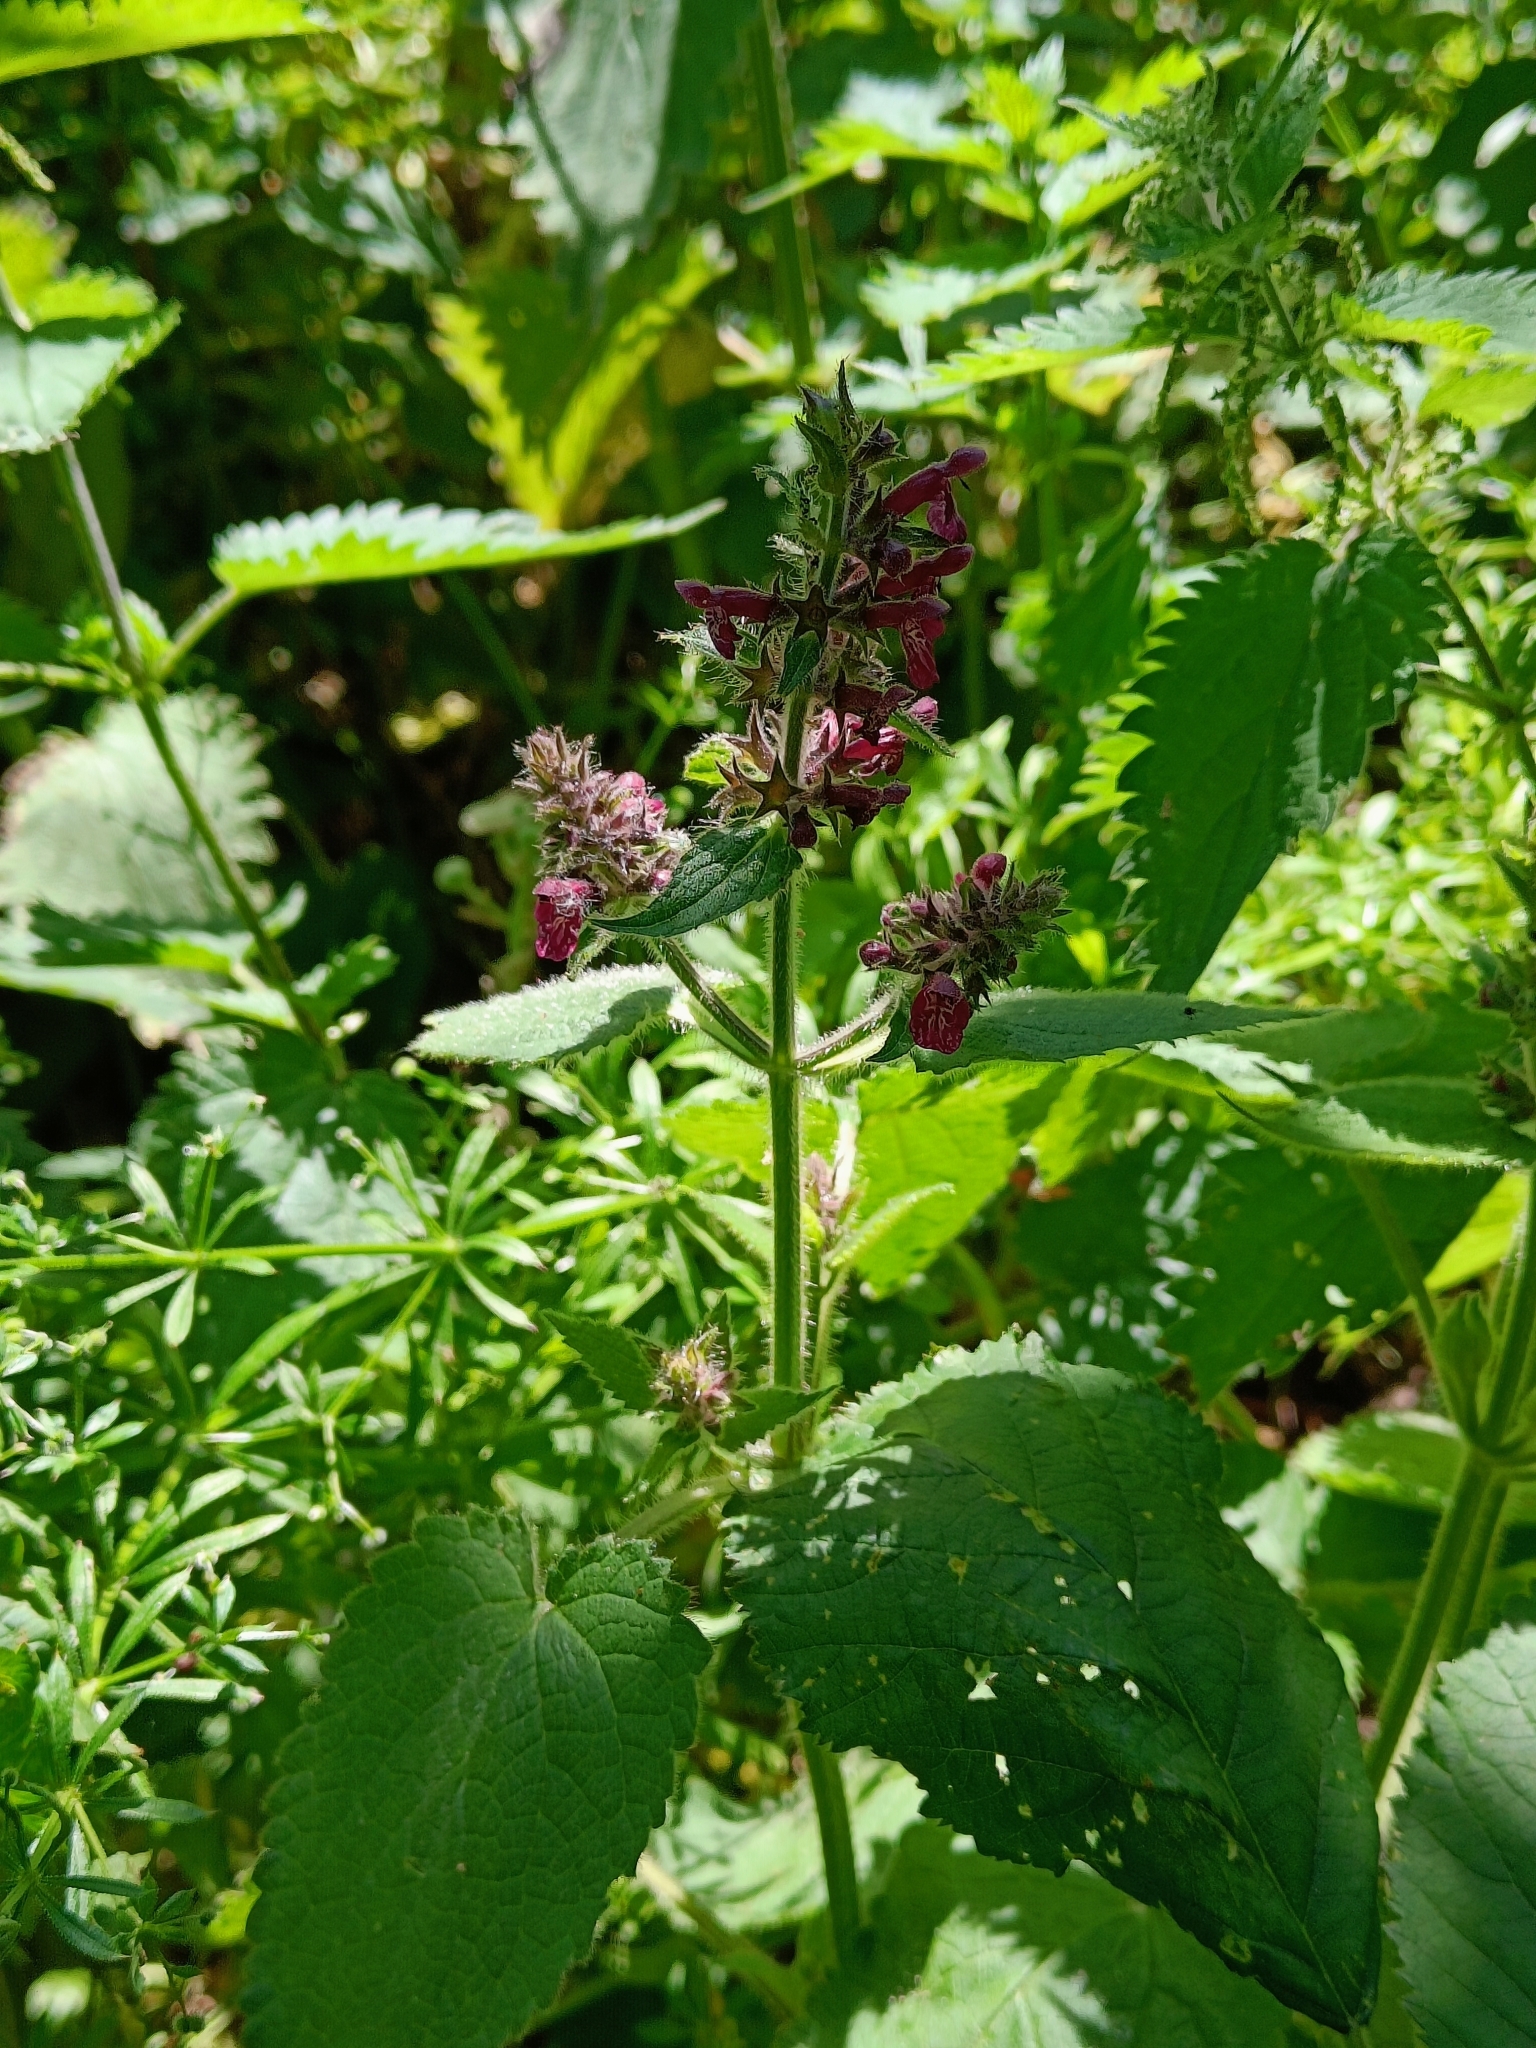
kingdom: Plantae
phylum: Tracheophyta
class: Magnoliopsida
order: Lamiales
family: Lamiaceae
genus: Stachys
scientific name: Stachys sylvatica
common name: Hedge woundwort
